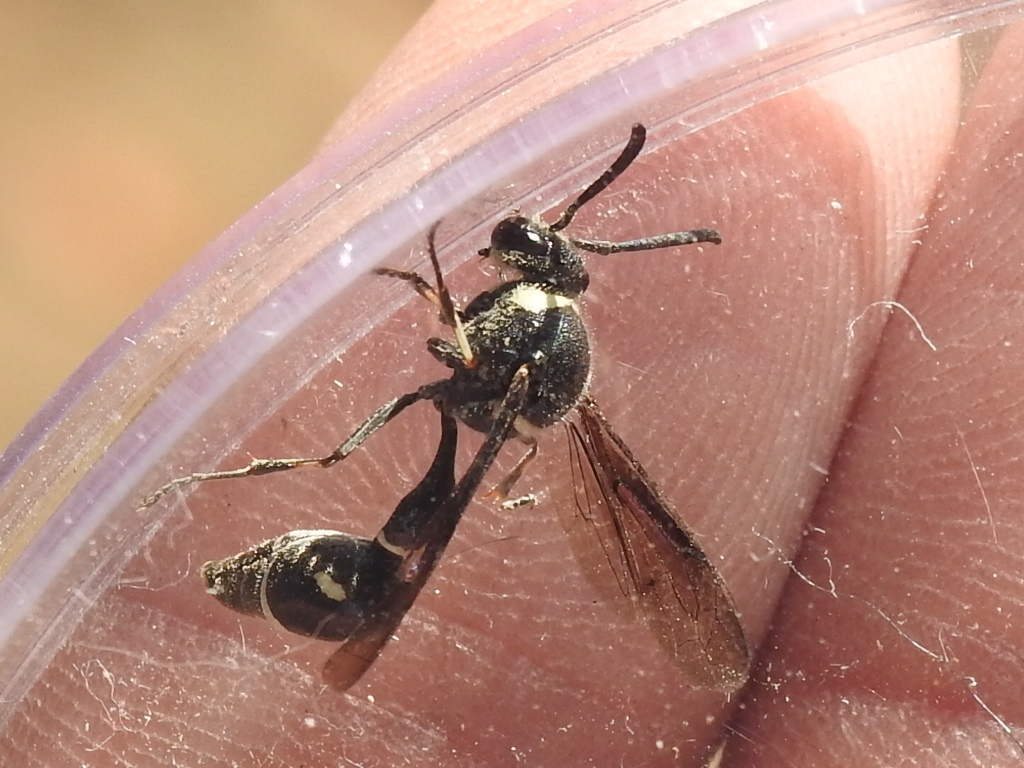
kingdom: Animalia
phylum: Arthropoda
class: Insecta
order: Hymenoptera
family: Vespidae
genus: Eumenes
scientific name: Eumenes fraternus
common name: Fraternal potter wasp
